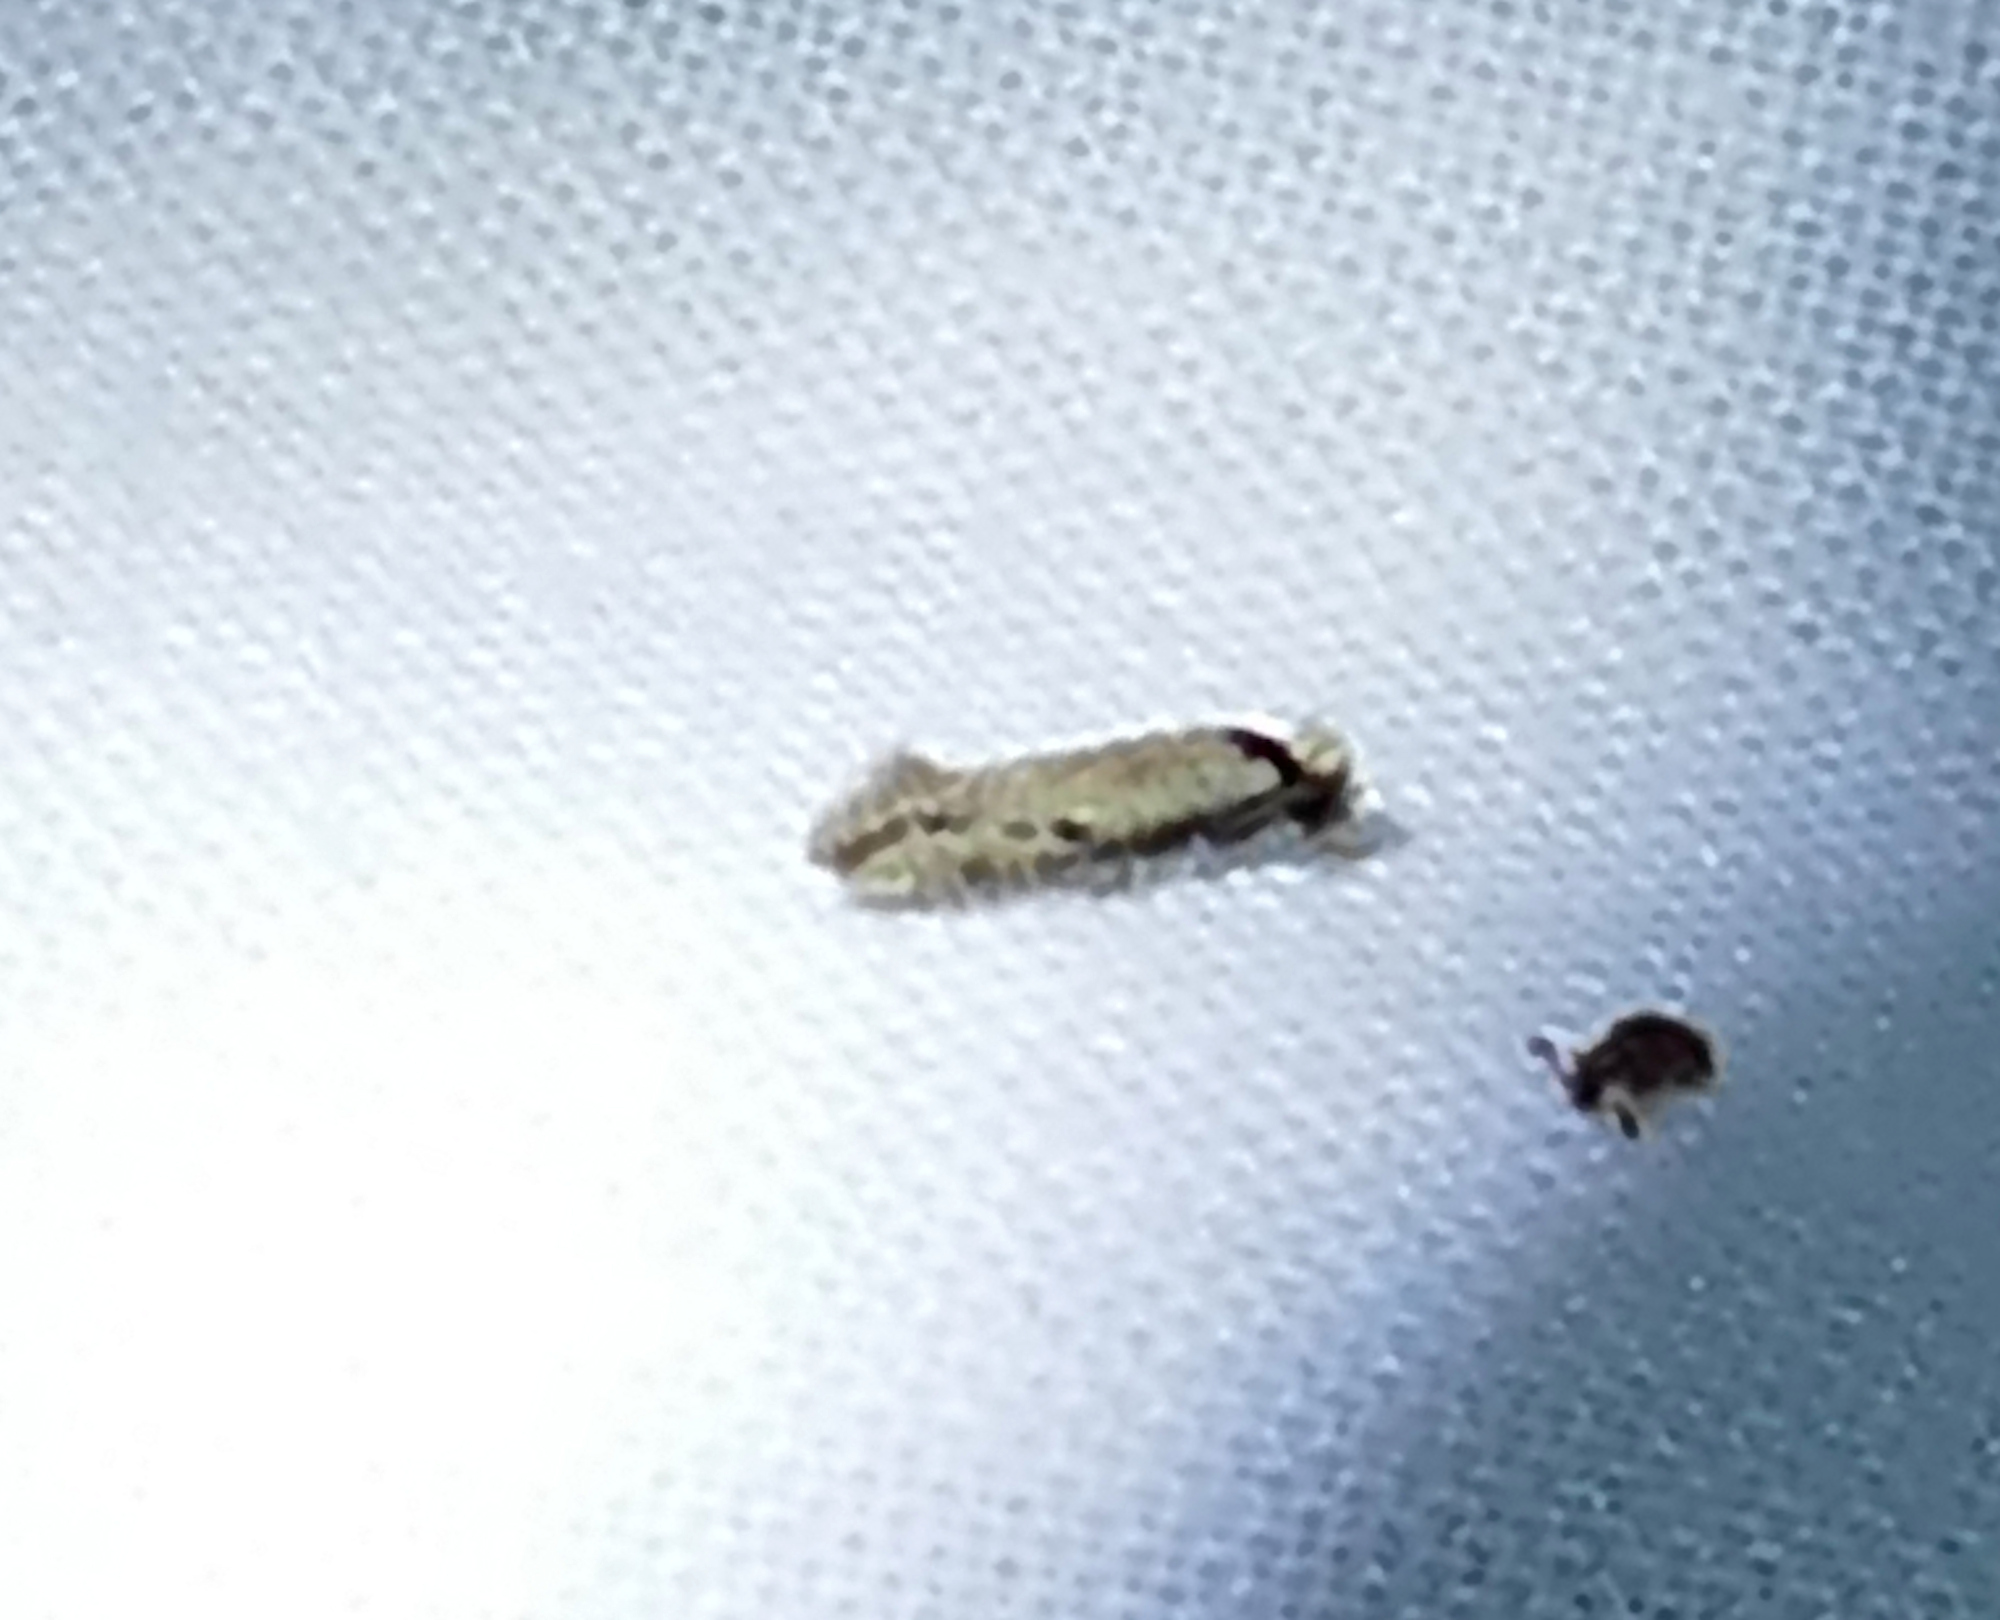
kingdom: Animalia
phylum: Arthropoda
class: Insecta
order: Lepidoptera
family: Meessiidae
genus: Homostinea
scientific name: Homostinea curviliniella
